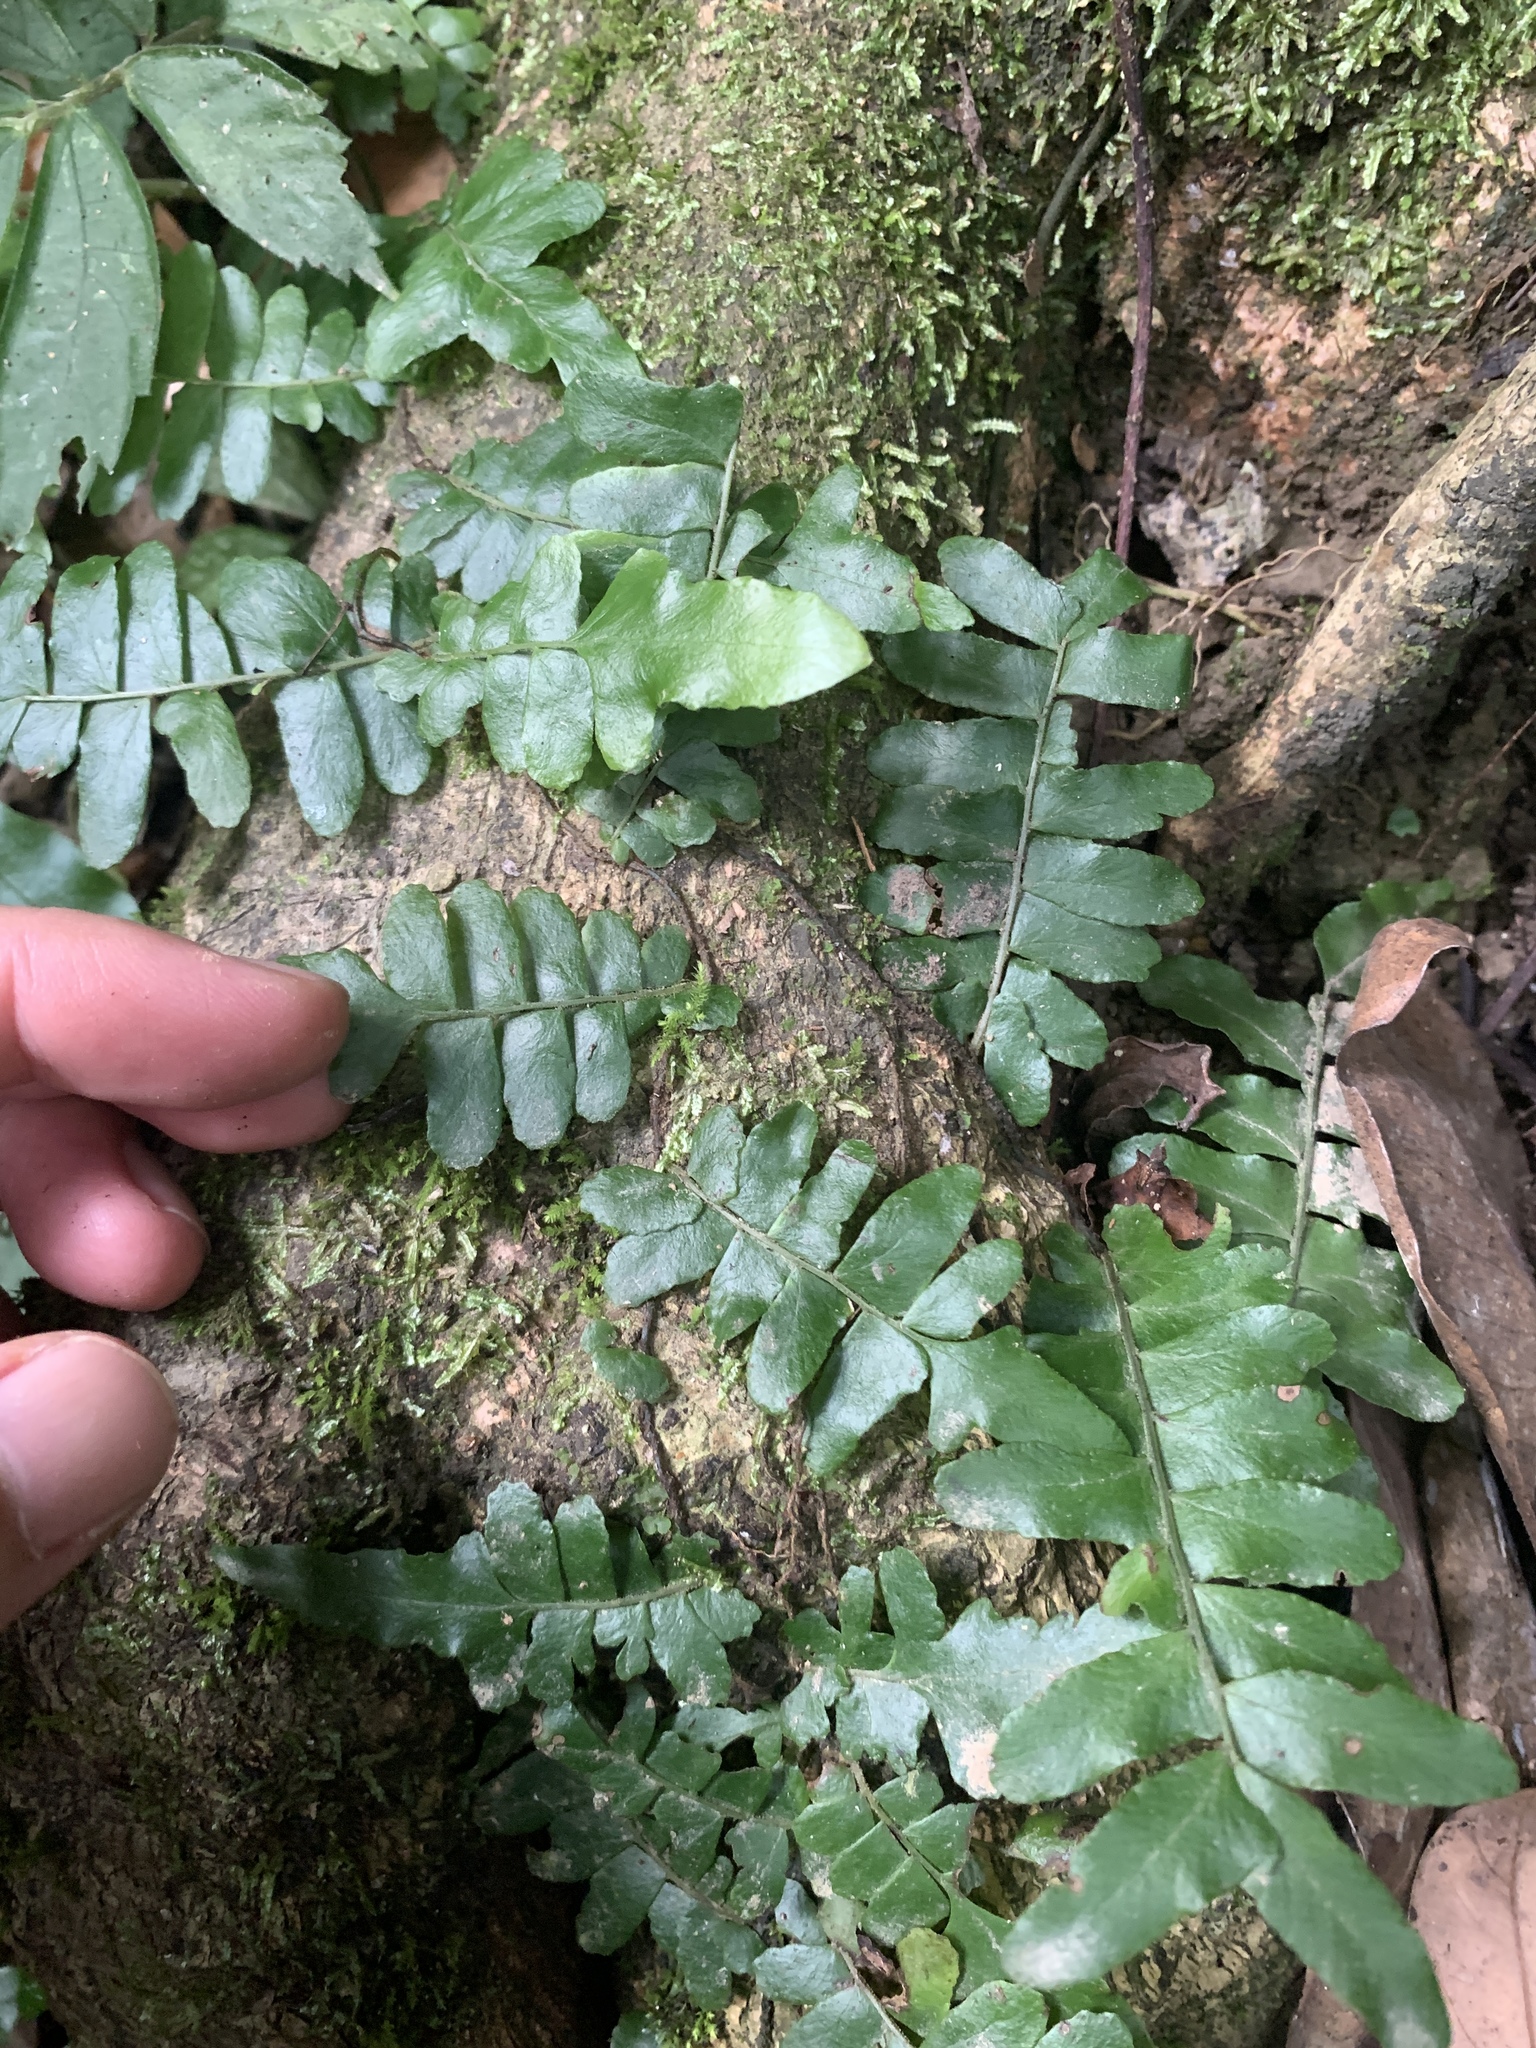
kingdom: Plantae
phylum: Tracheophyta
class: Polypodiopsida
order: Polypodiales
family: Tectariaceae
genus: Arthropteris
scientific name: Arthropteris palisotii
